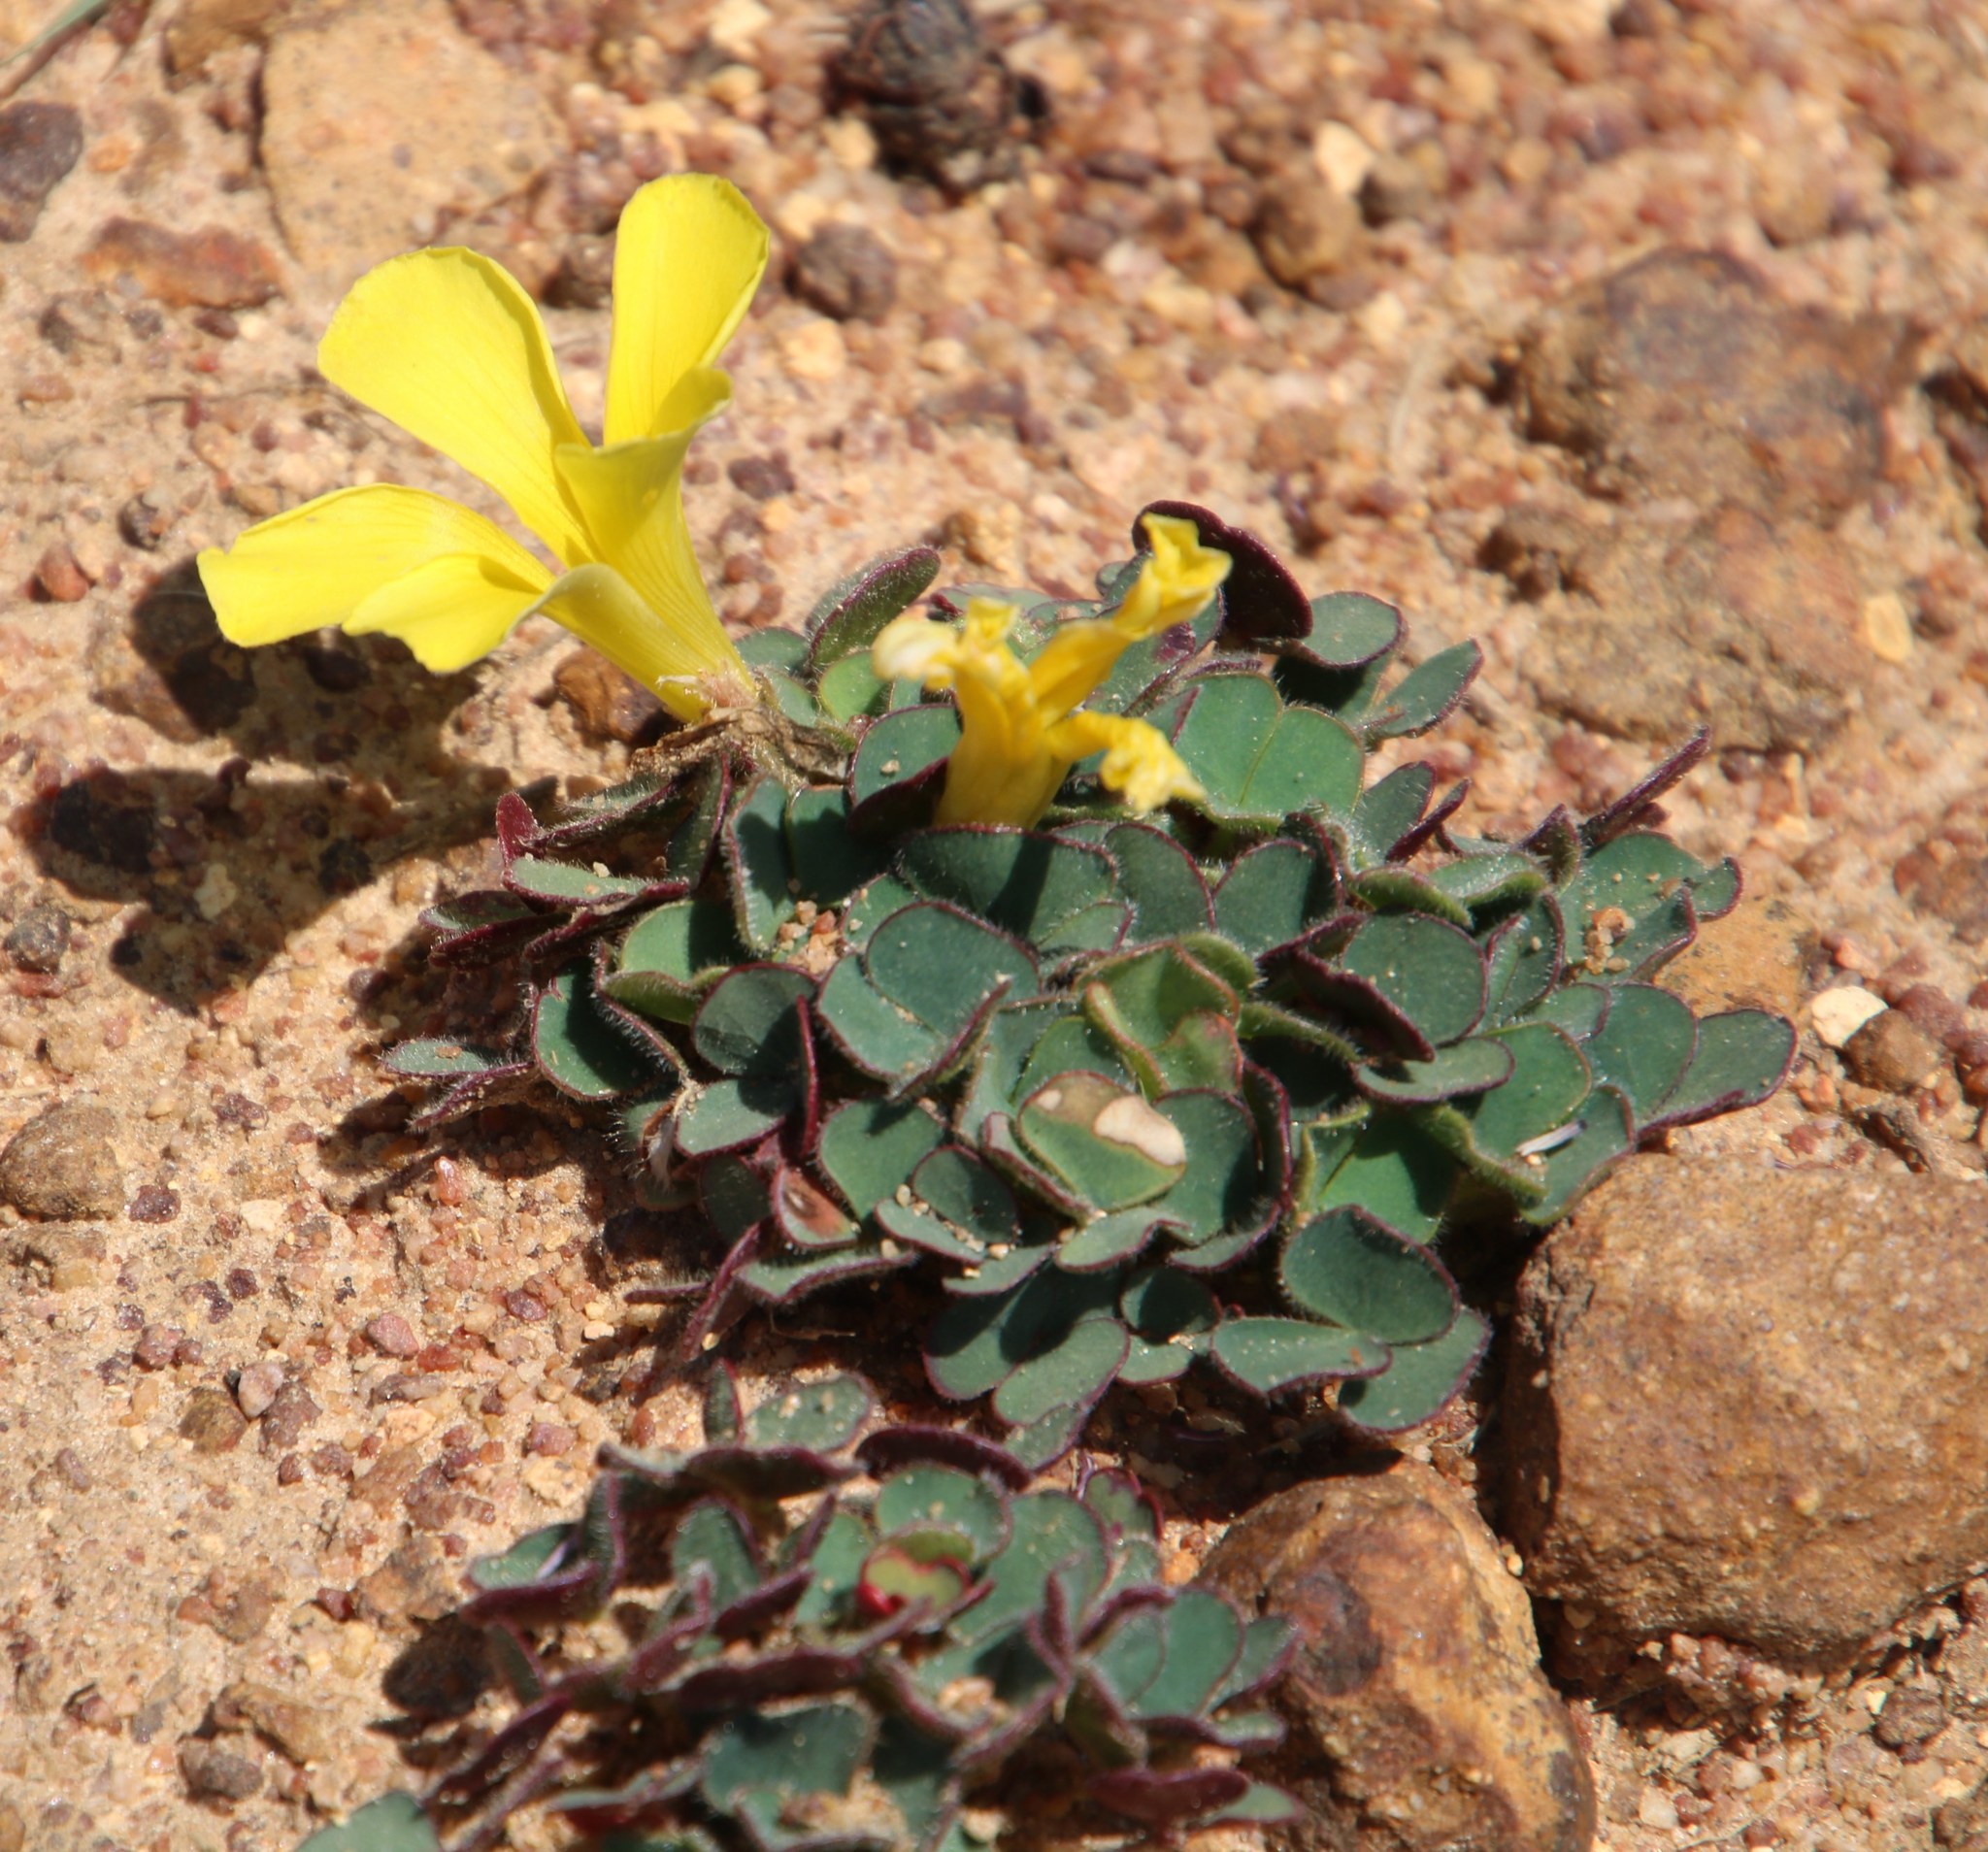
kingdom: Plantae
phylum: Tracheophyta
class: Magnoliopsida
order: Oxalidales
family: Oxalidaceae
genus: Oxalis
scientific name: Oxalis luteola
